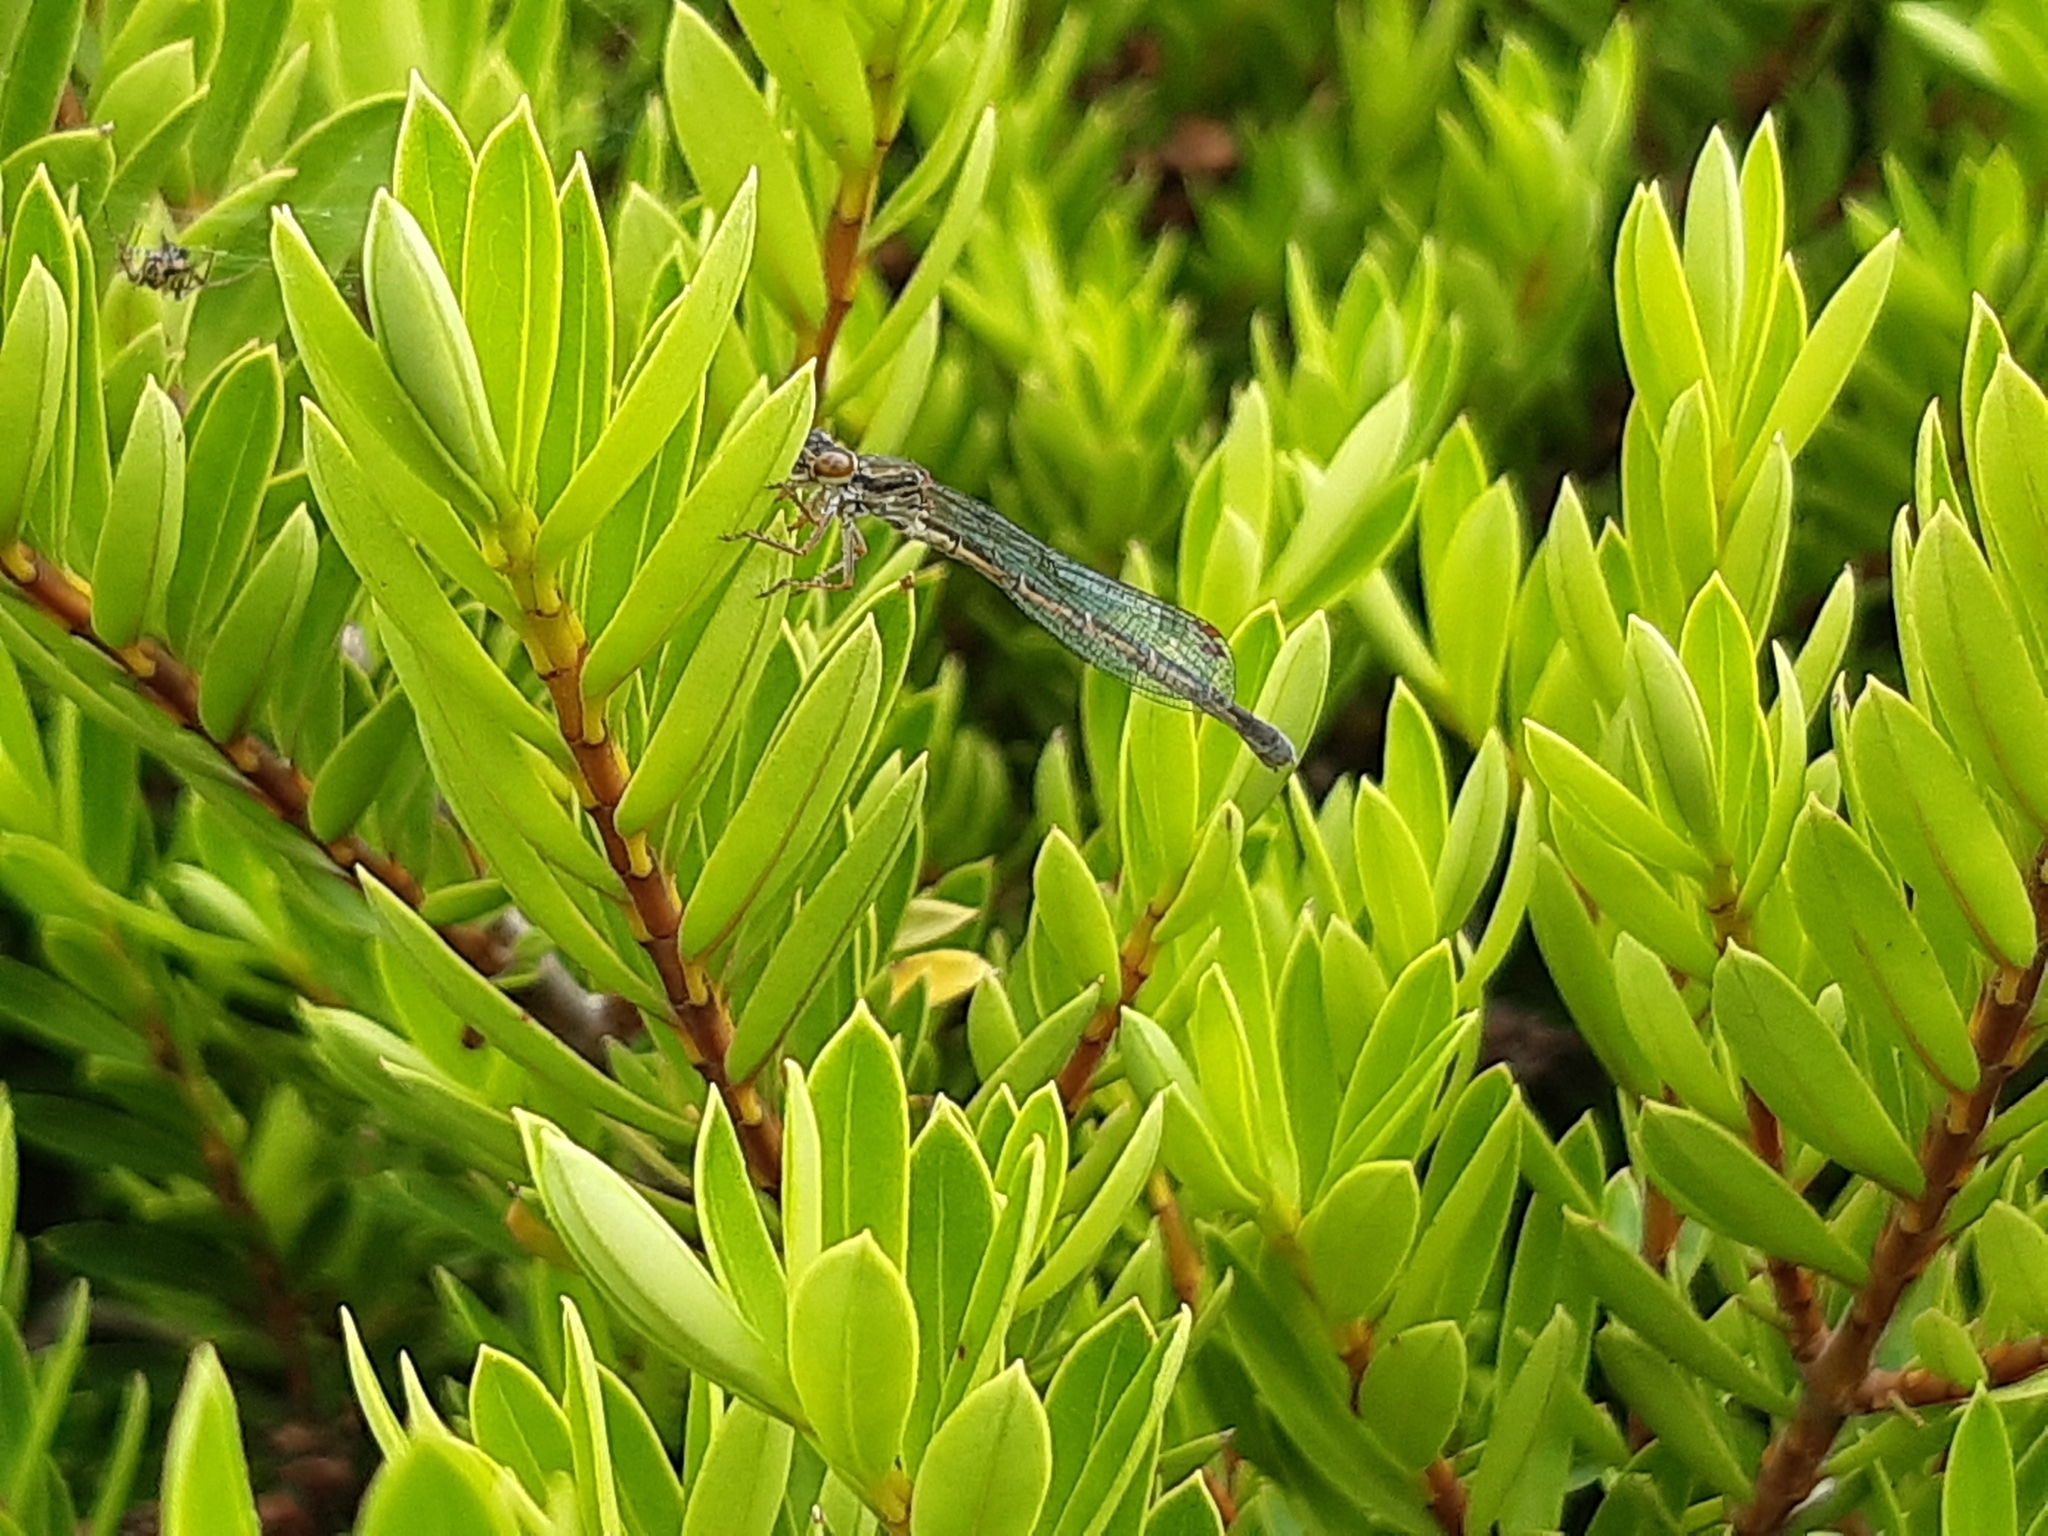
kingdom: Animalia
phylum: Arthropoda
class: Insecta
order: Odonata
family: Coenagrionidae
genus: Xanthocnemis
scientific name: Xanthocnemis zealandica
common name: Common redcoat damselfly
